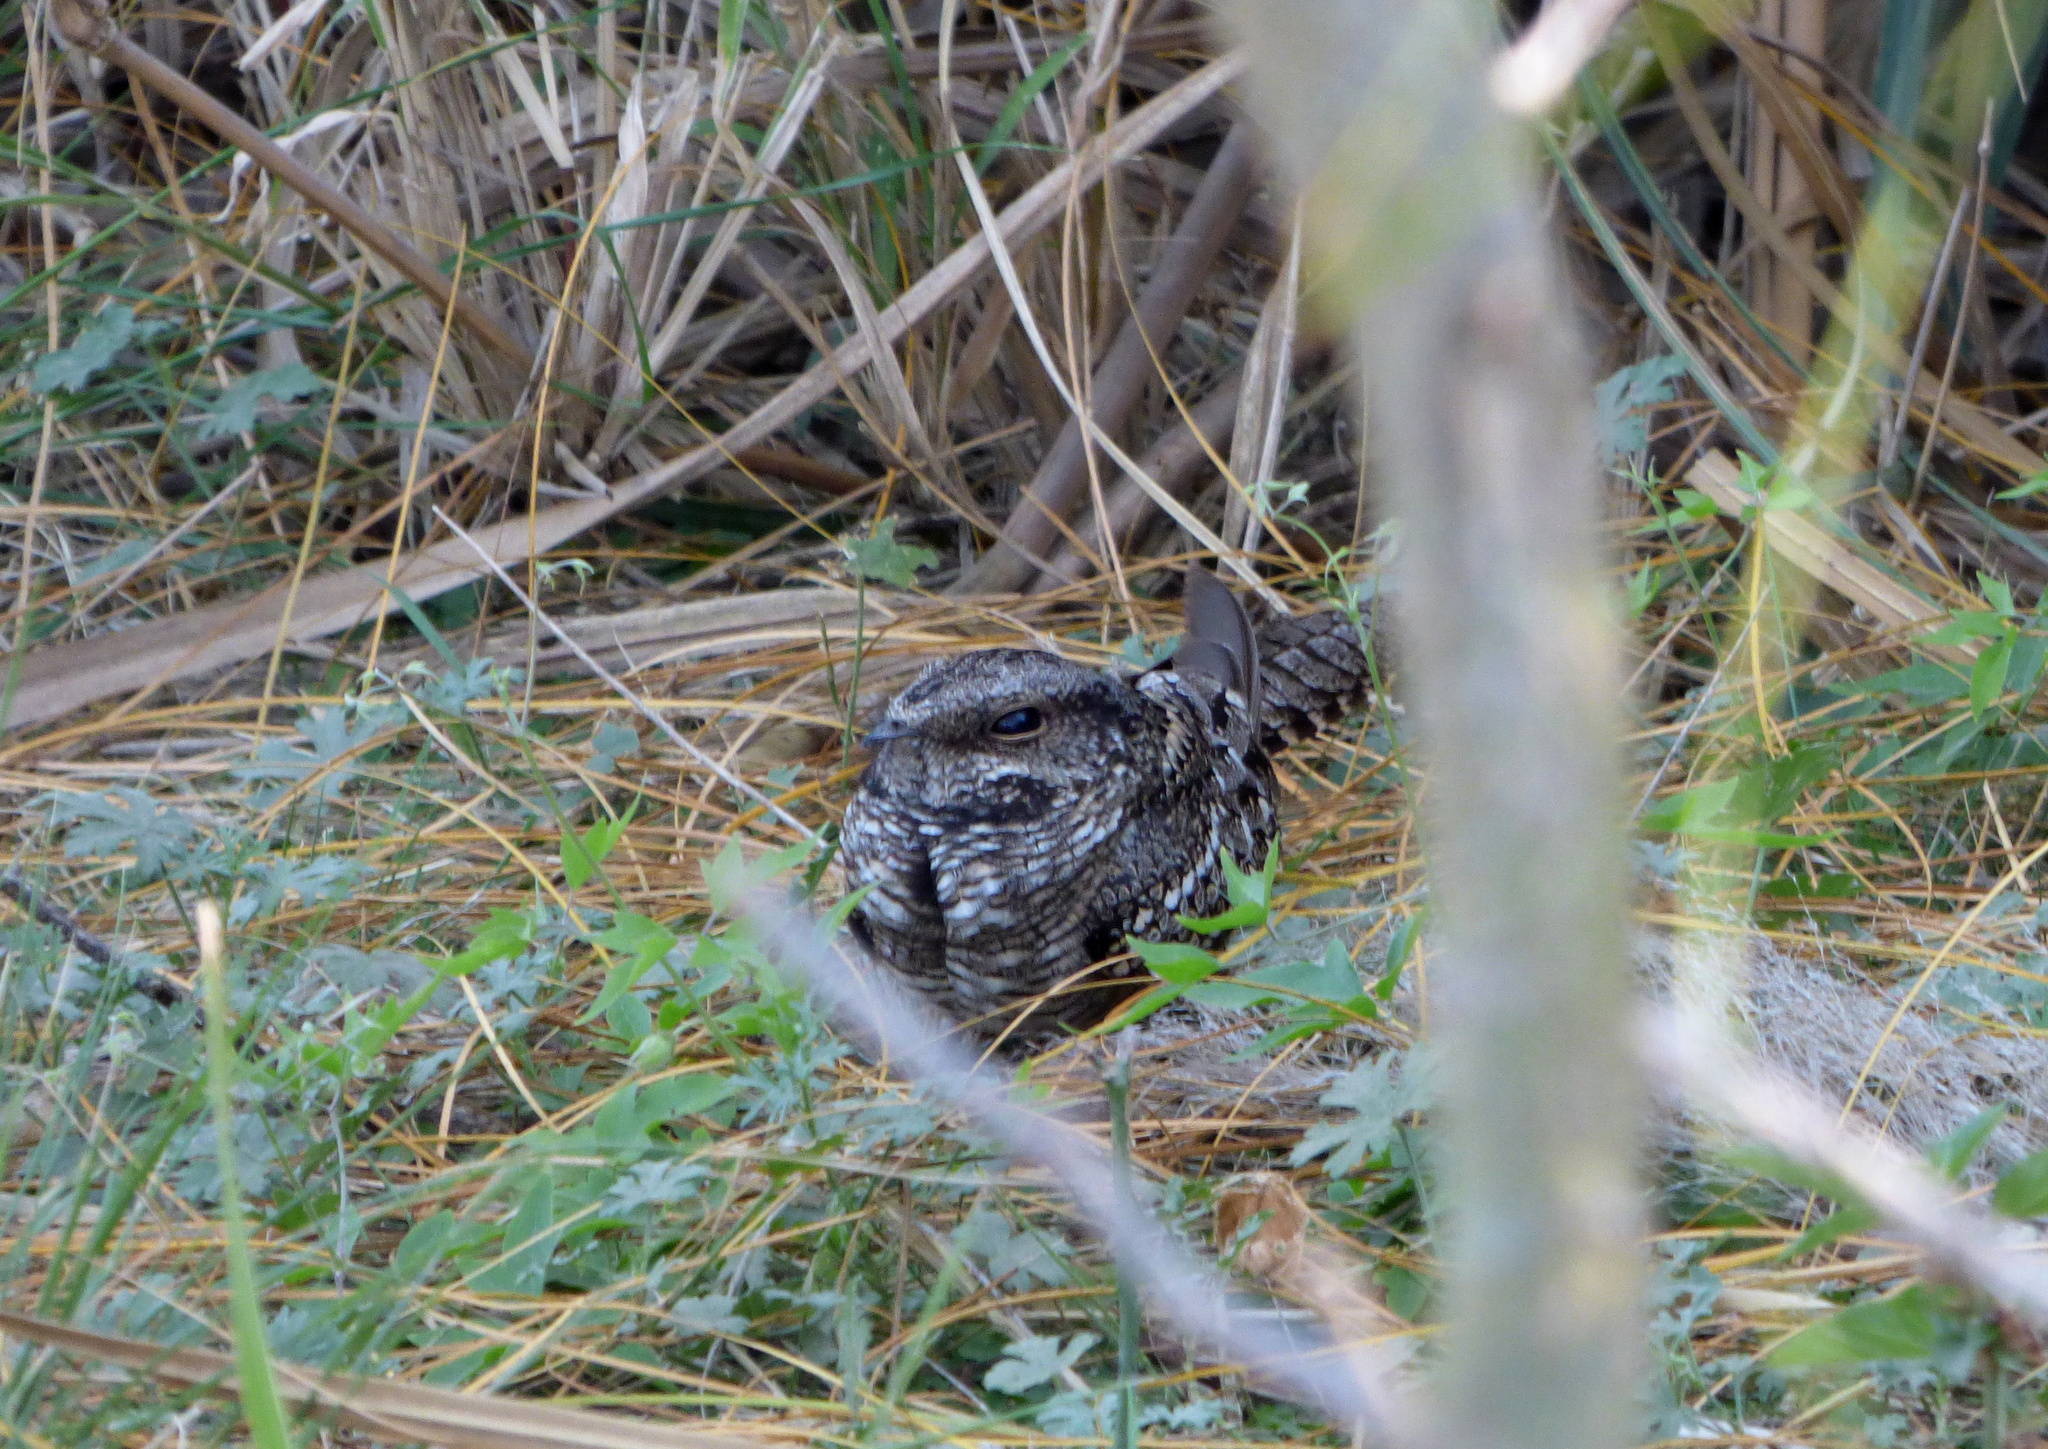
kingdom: Animalia
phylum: Chordata
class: Aves
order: Caprimulgiformes
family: Caprimulgidae
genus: Hydropsalis
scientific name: Hydropsalis torquata
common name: Scissor-tailed nightjar
